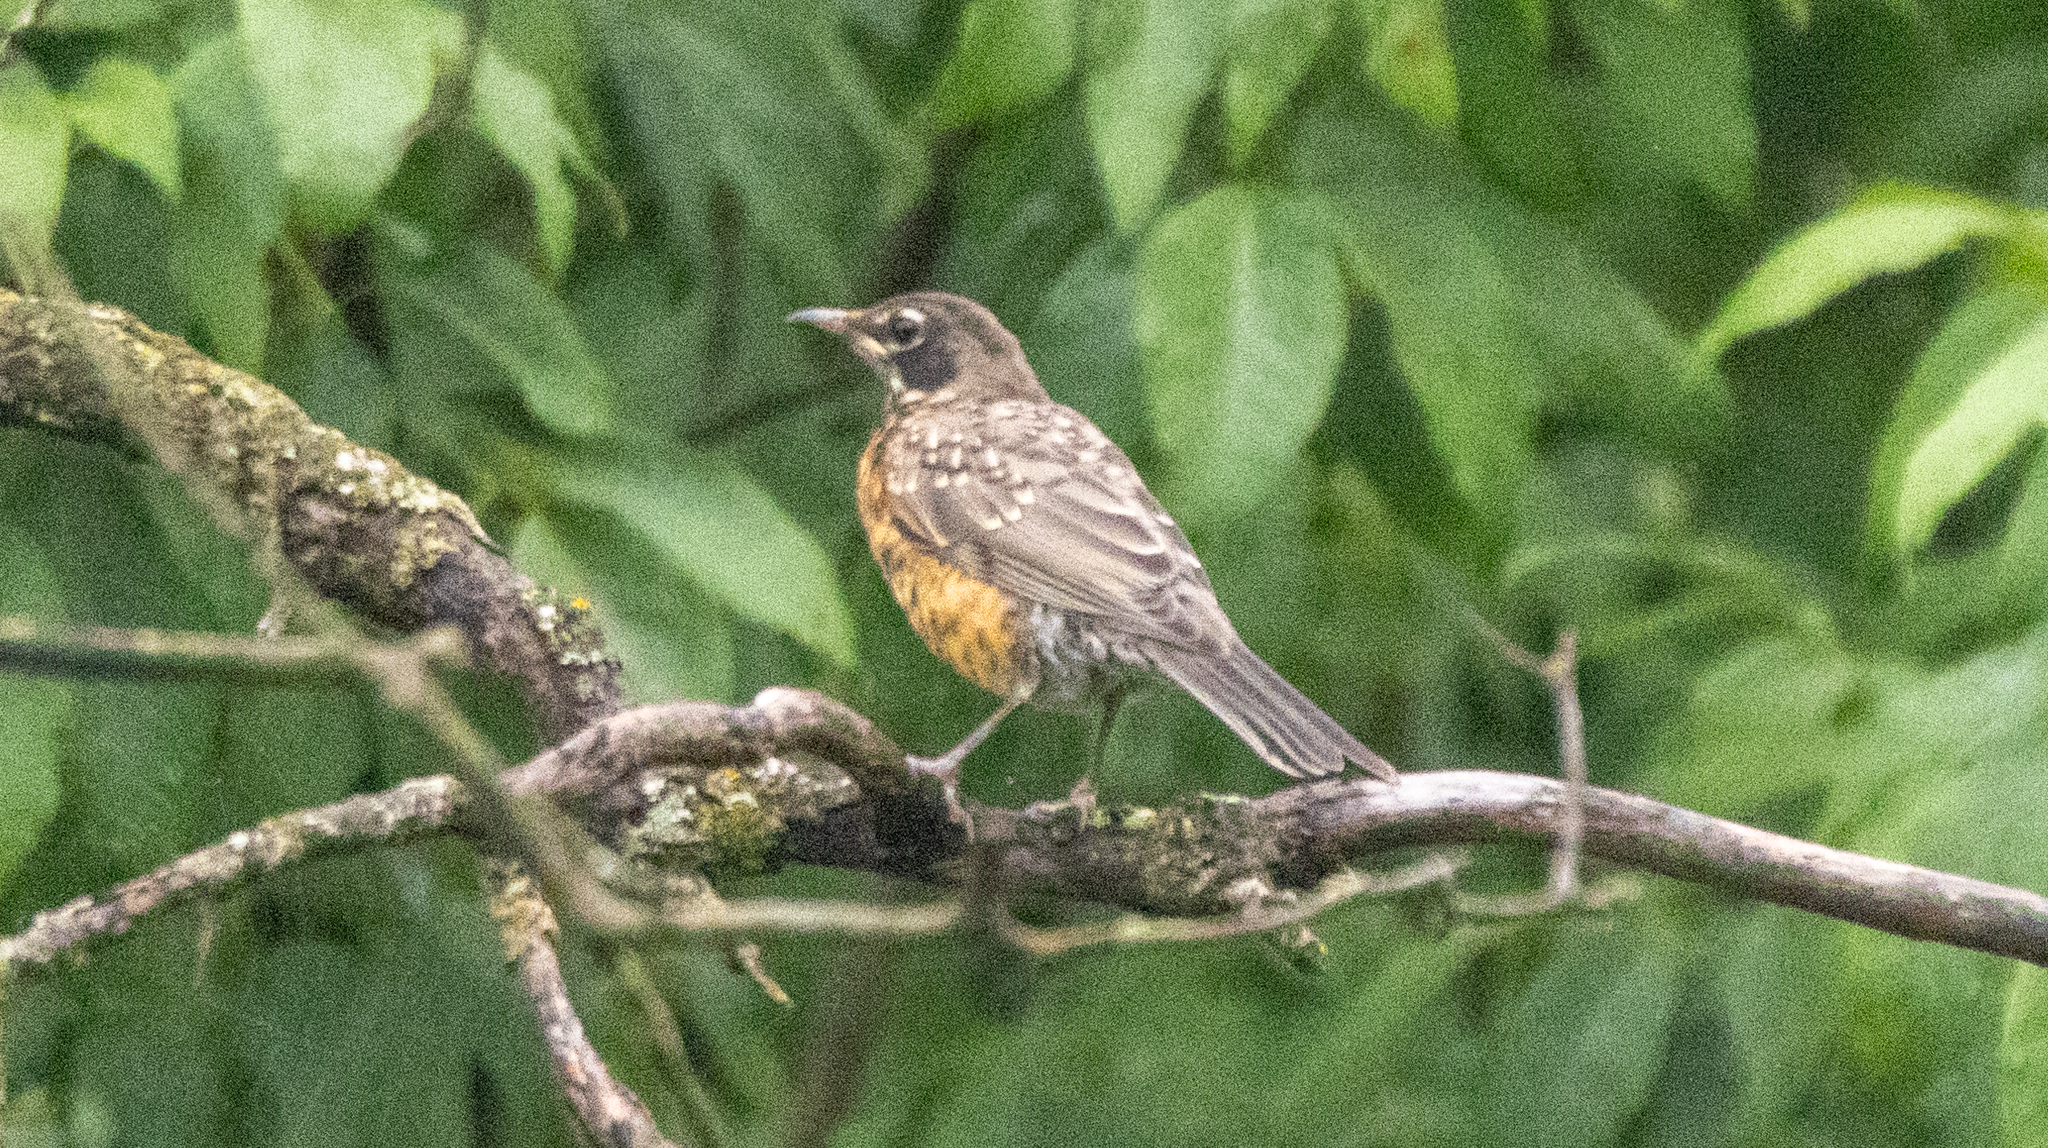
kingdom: Animalia
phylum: Chordata
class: Aves
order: Passeriformes
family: Turdidae
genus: Turdus
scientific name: Turdus migratorius
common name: American robin
